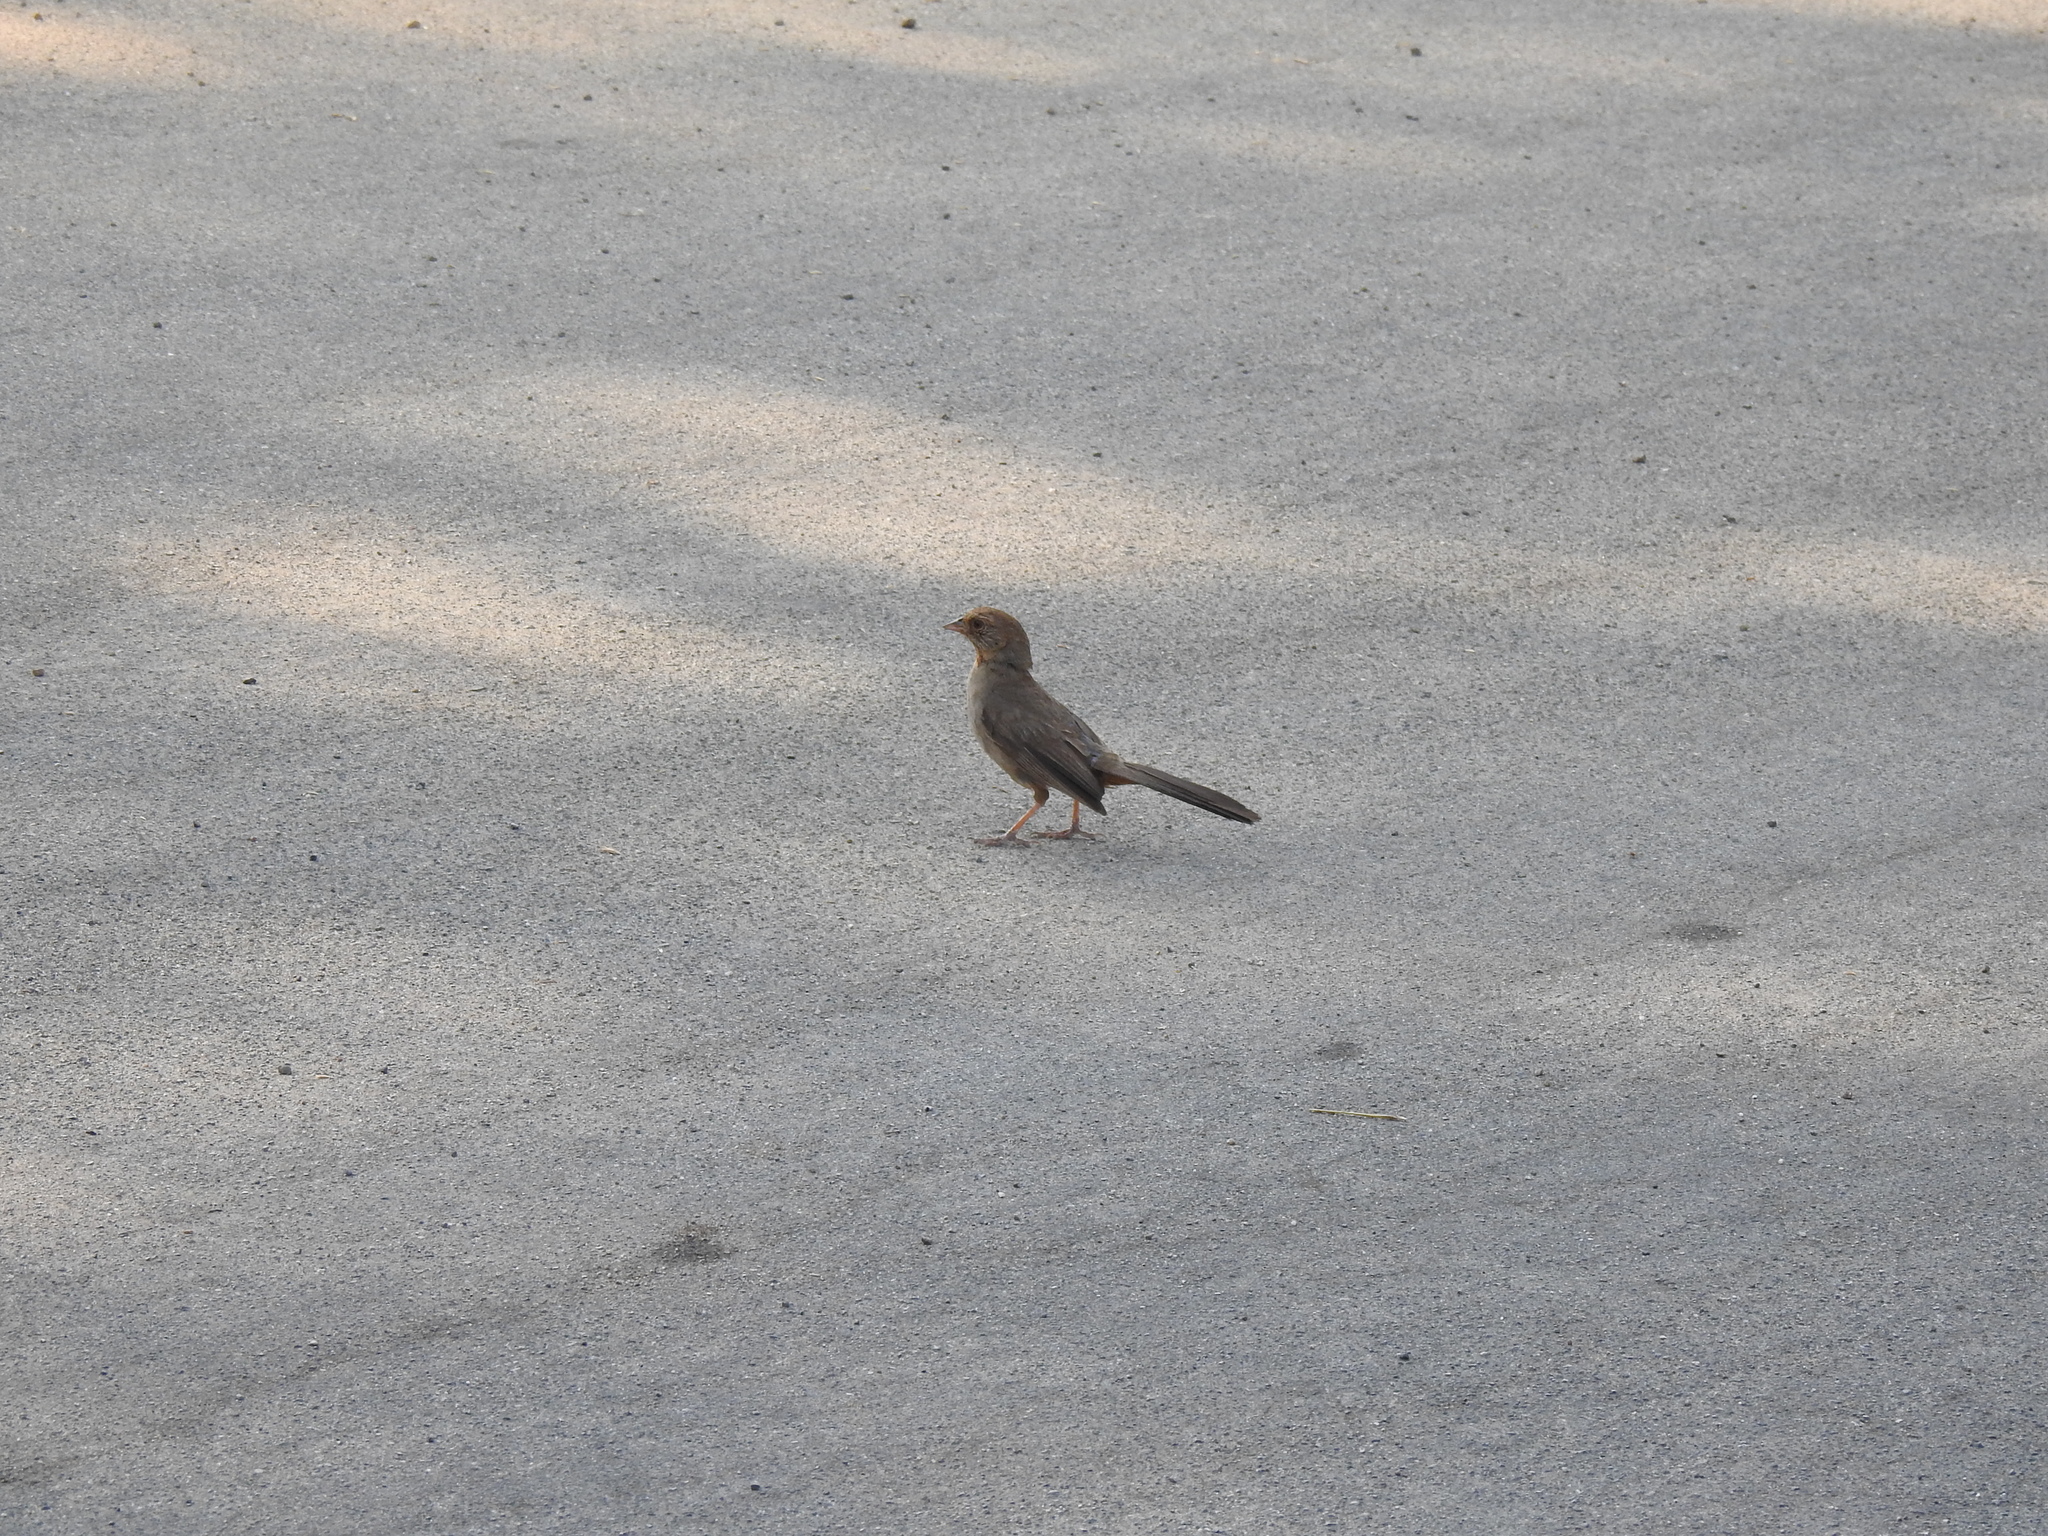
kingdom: Animalia
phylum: Chordata
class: Aves
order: Passeriformes
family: Passerellidae
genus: Melozone
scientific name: Melozone crissalis
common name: California towhee
